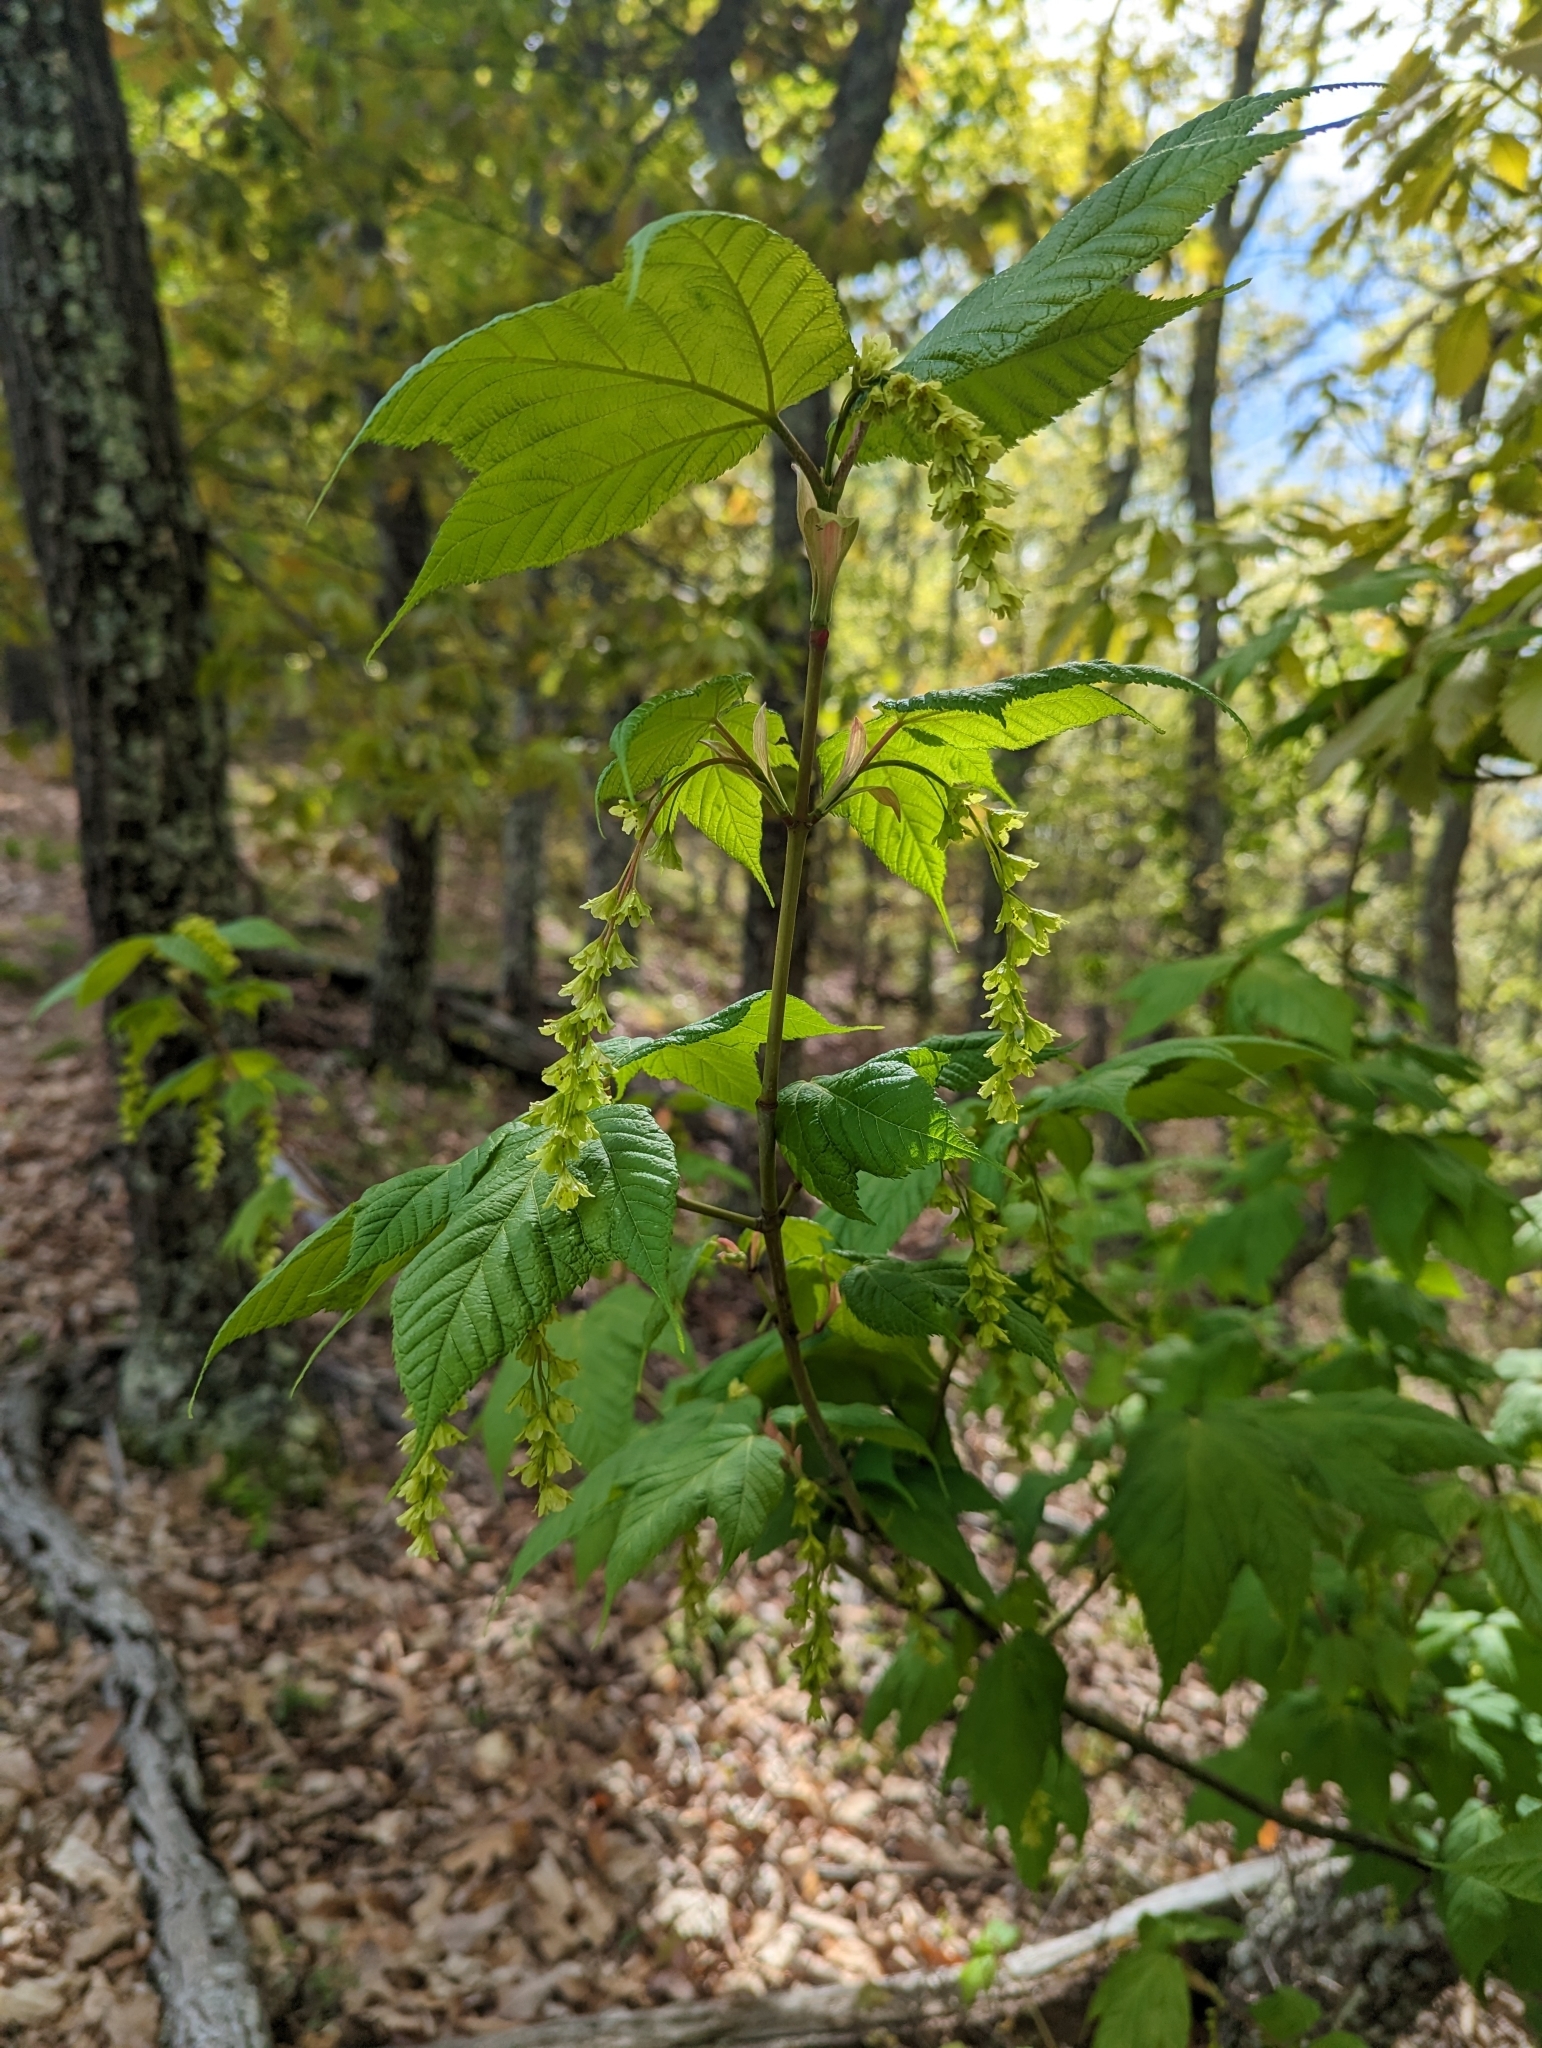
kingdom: Plantae
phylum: Tracheophyta
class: Magnoliopsida
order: Sapindales
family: Sapindaceae
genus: Acer
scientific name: Acer pensylvanicum
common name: Moosewood
